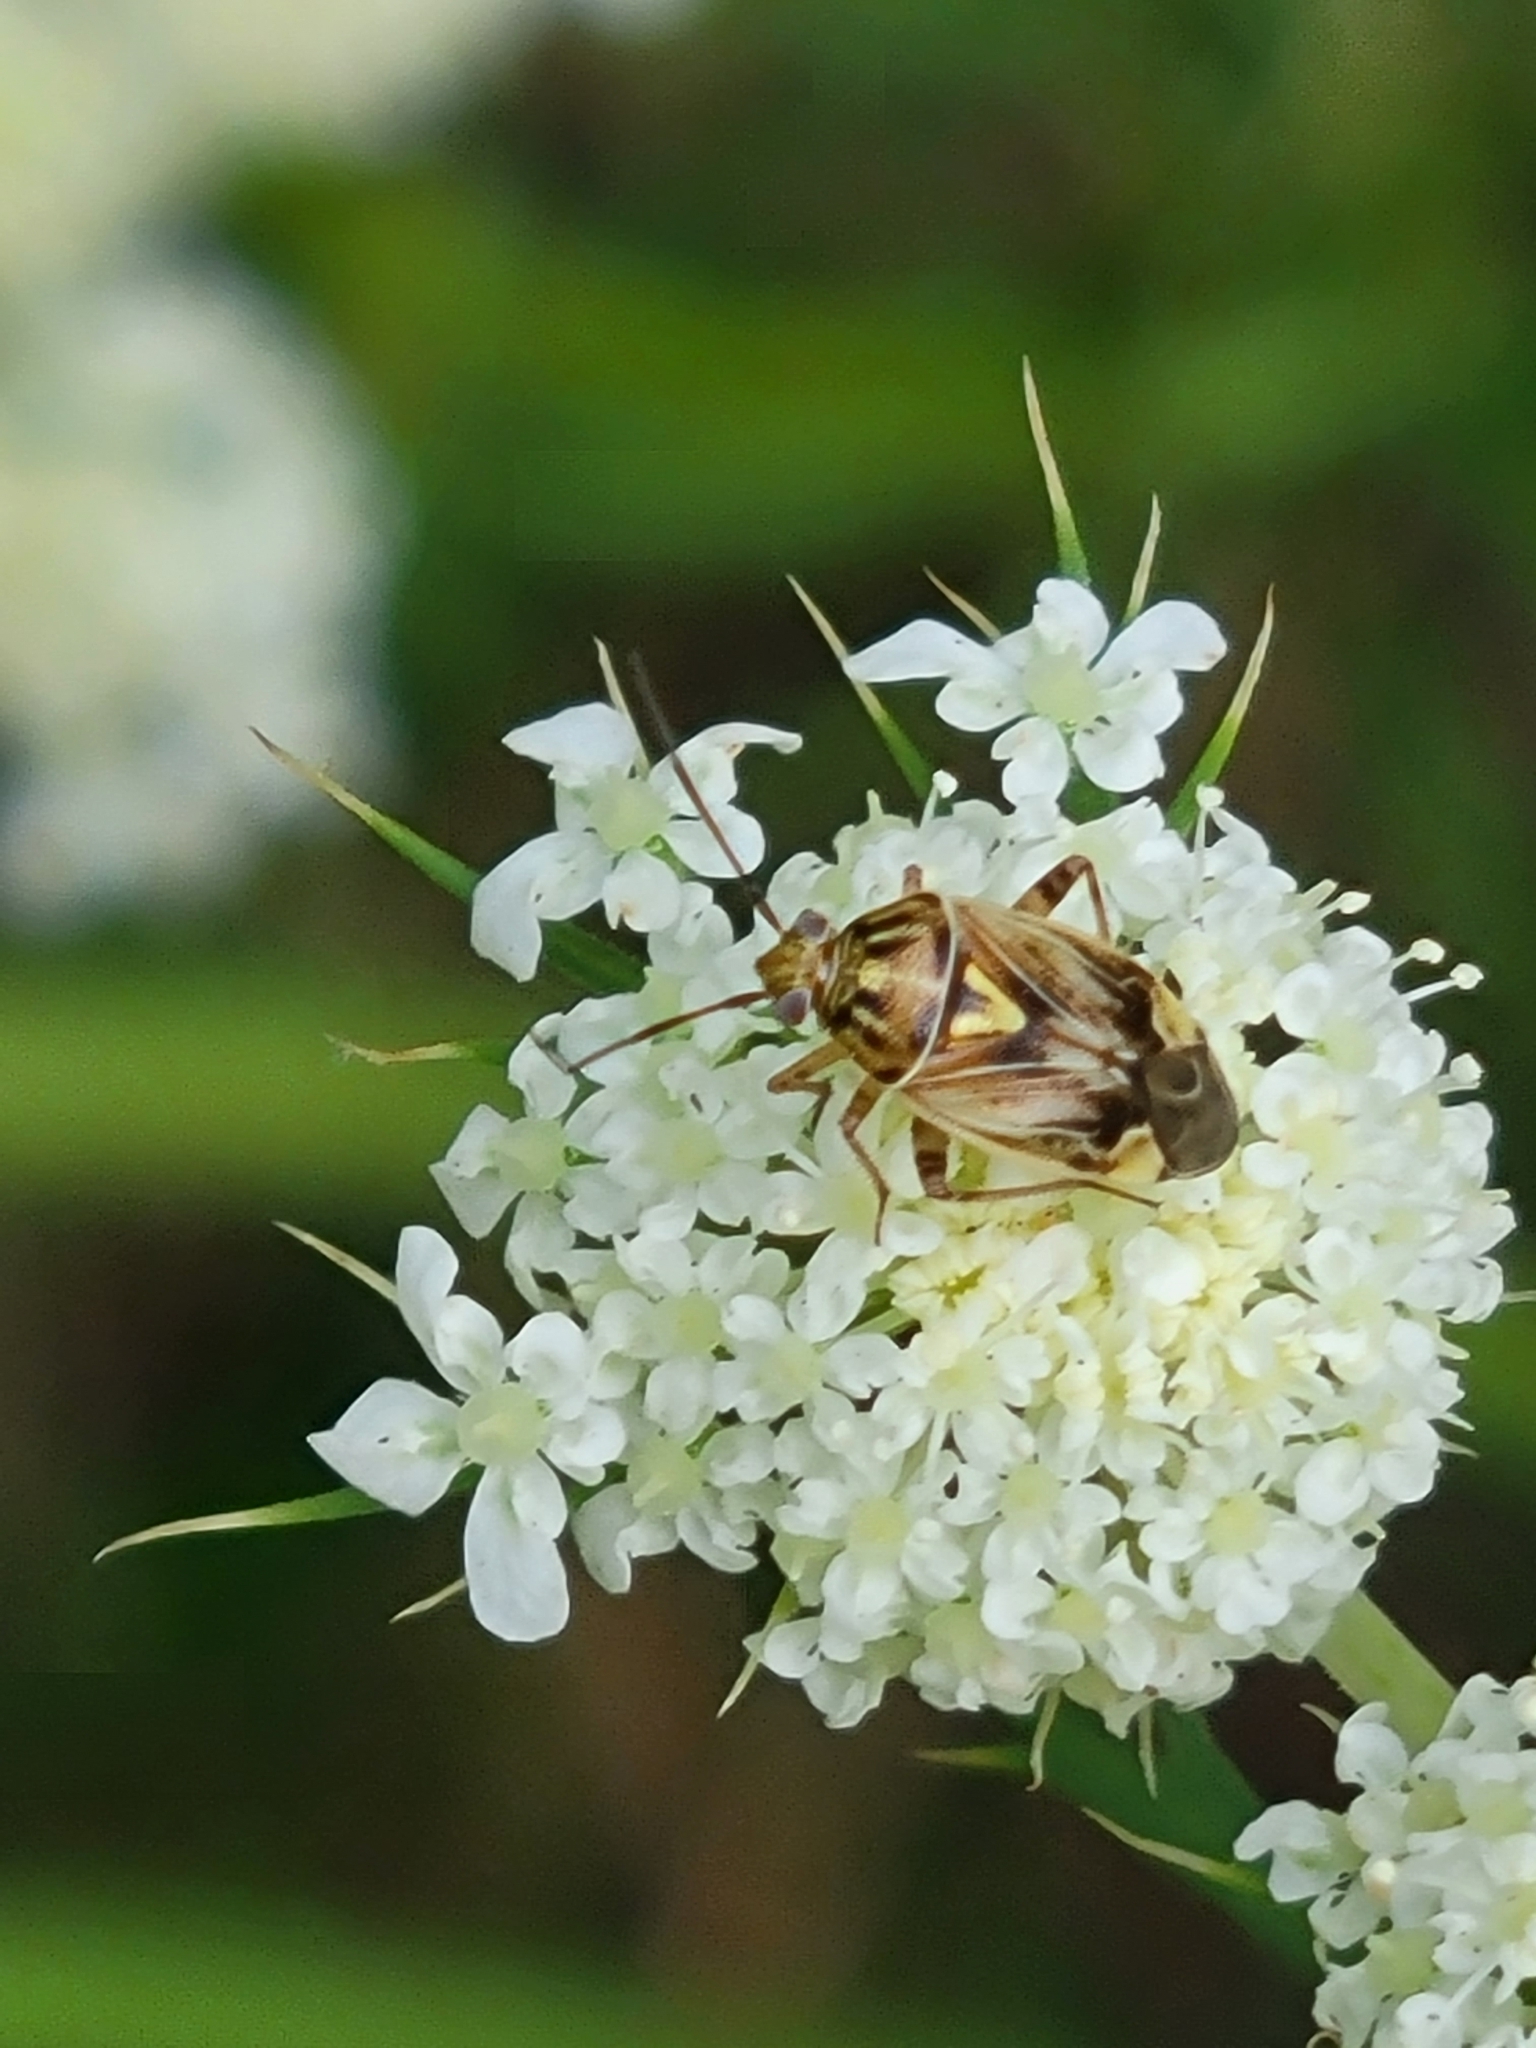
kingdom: Animalia
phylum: Arthropoda
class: Insecta
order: Hemiptera
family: Miridae
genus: Lygus
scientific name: Lygus lineolaris
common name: North american tarnished plant bug
